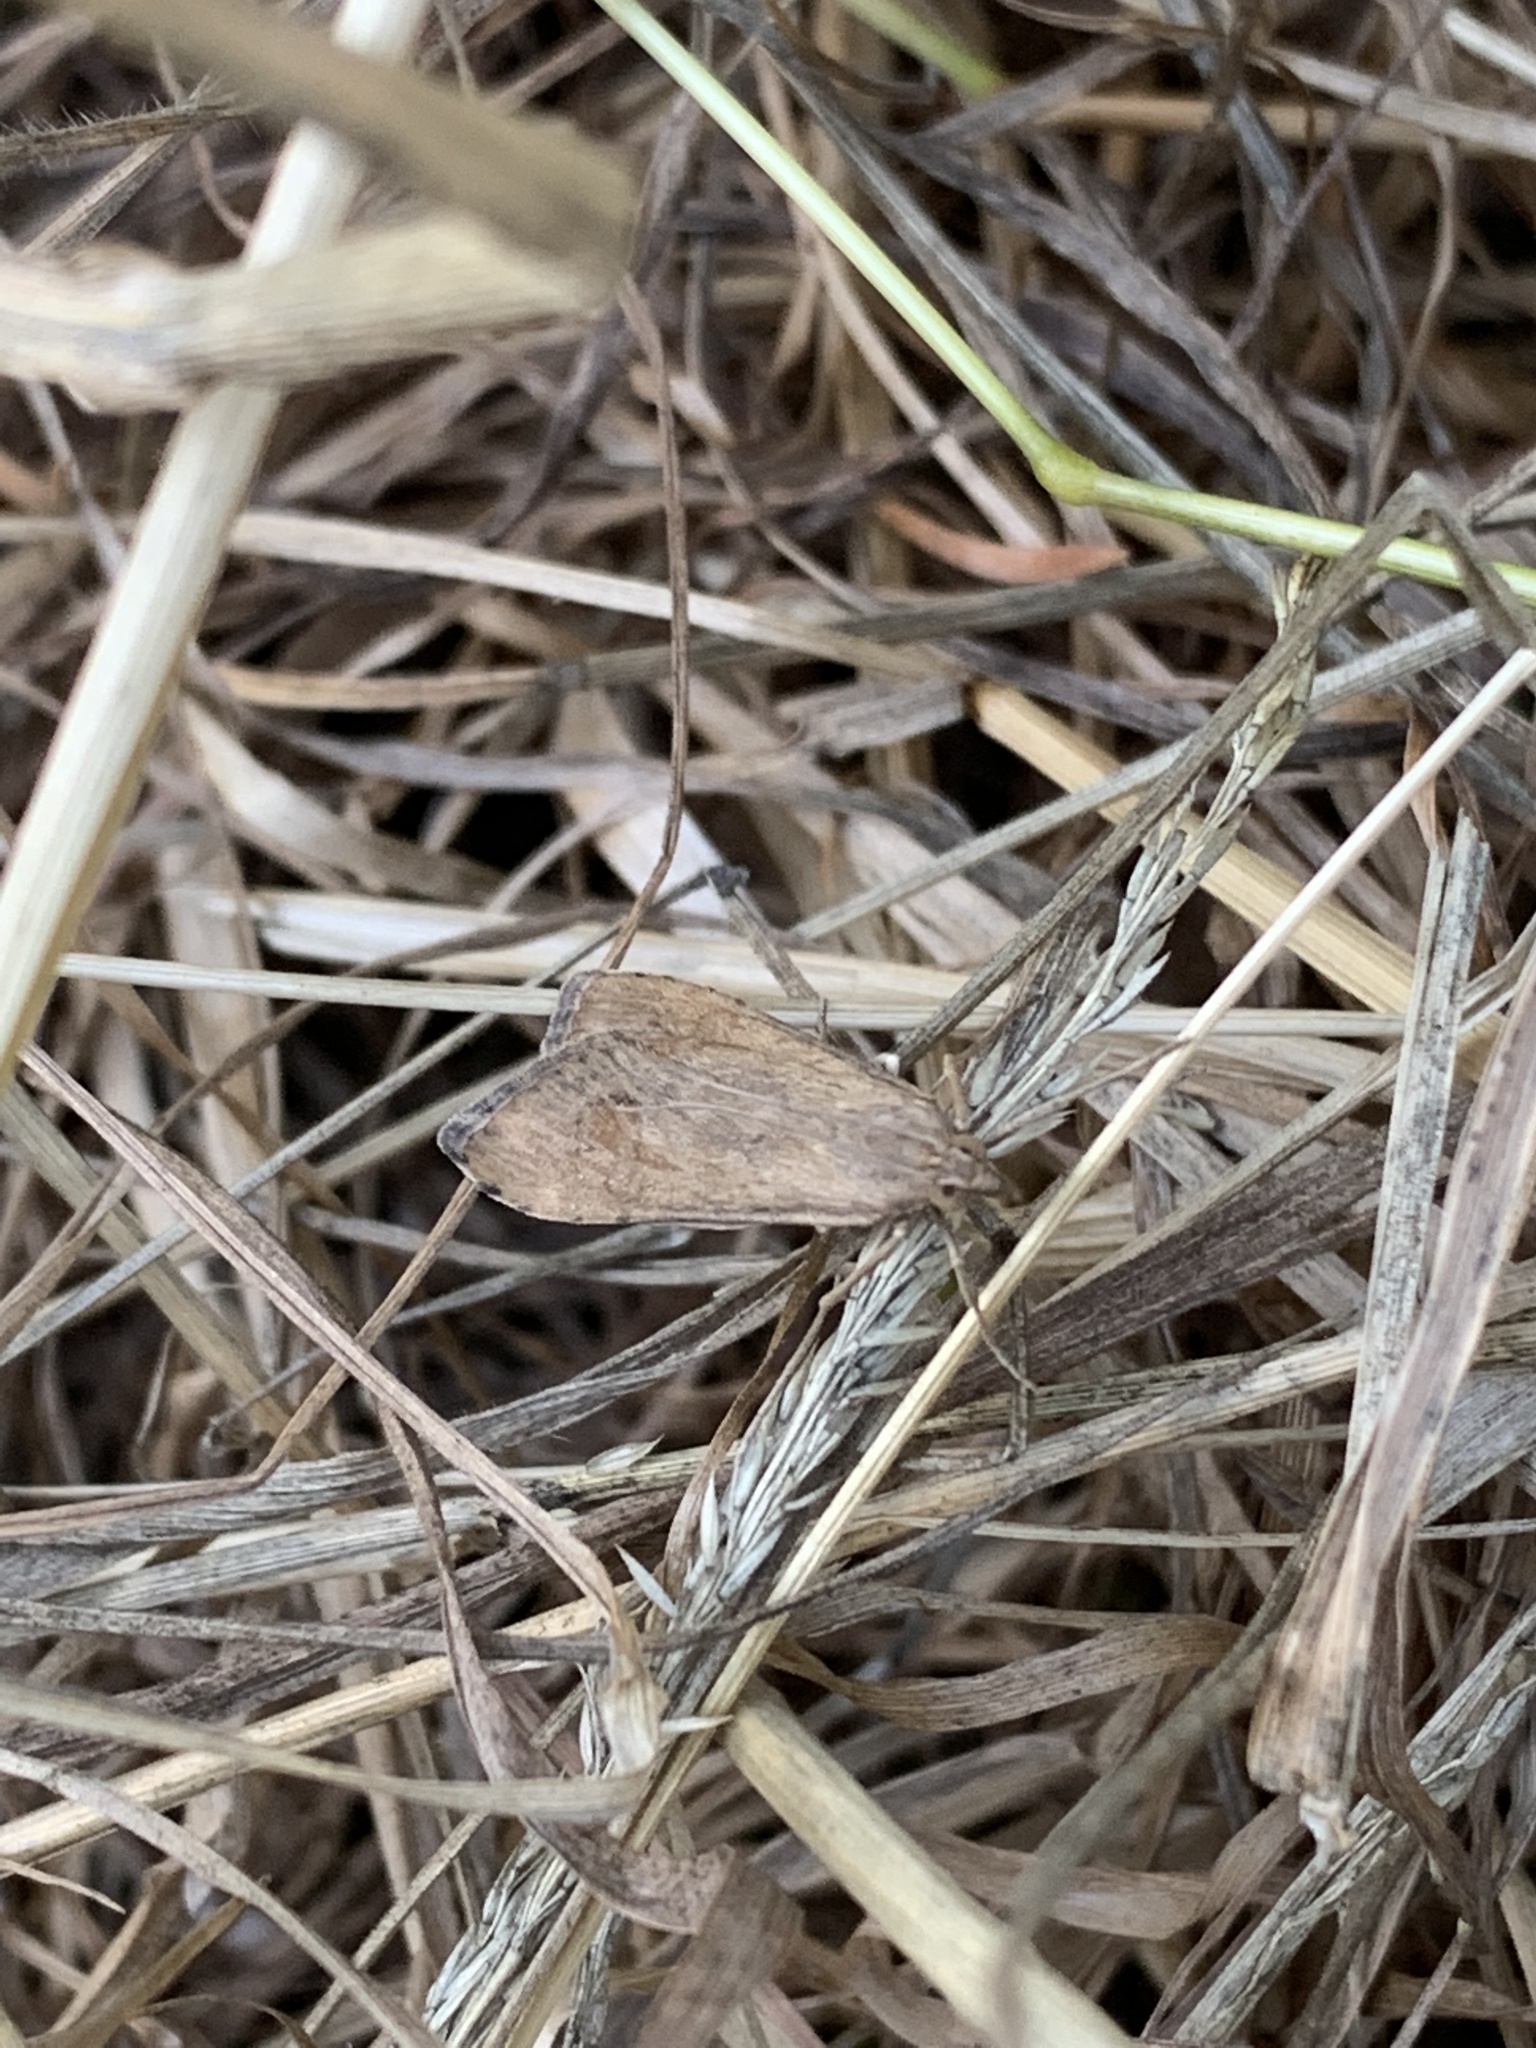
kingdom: Animalia
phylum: Arthropoda
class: Insecta
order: Lepidoptera
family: Crambidae
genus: Nomophila
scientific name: Nomophila noctuella
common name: Rush veneer
